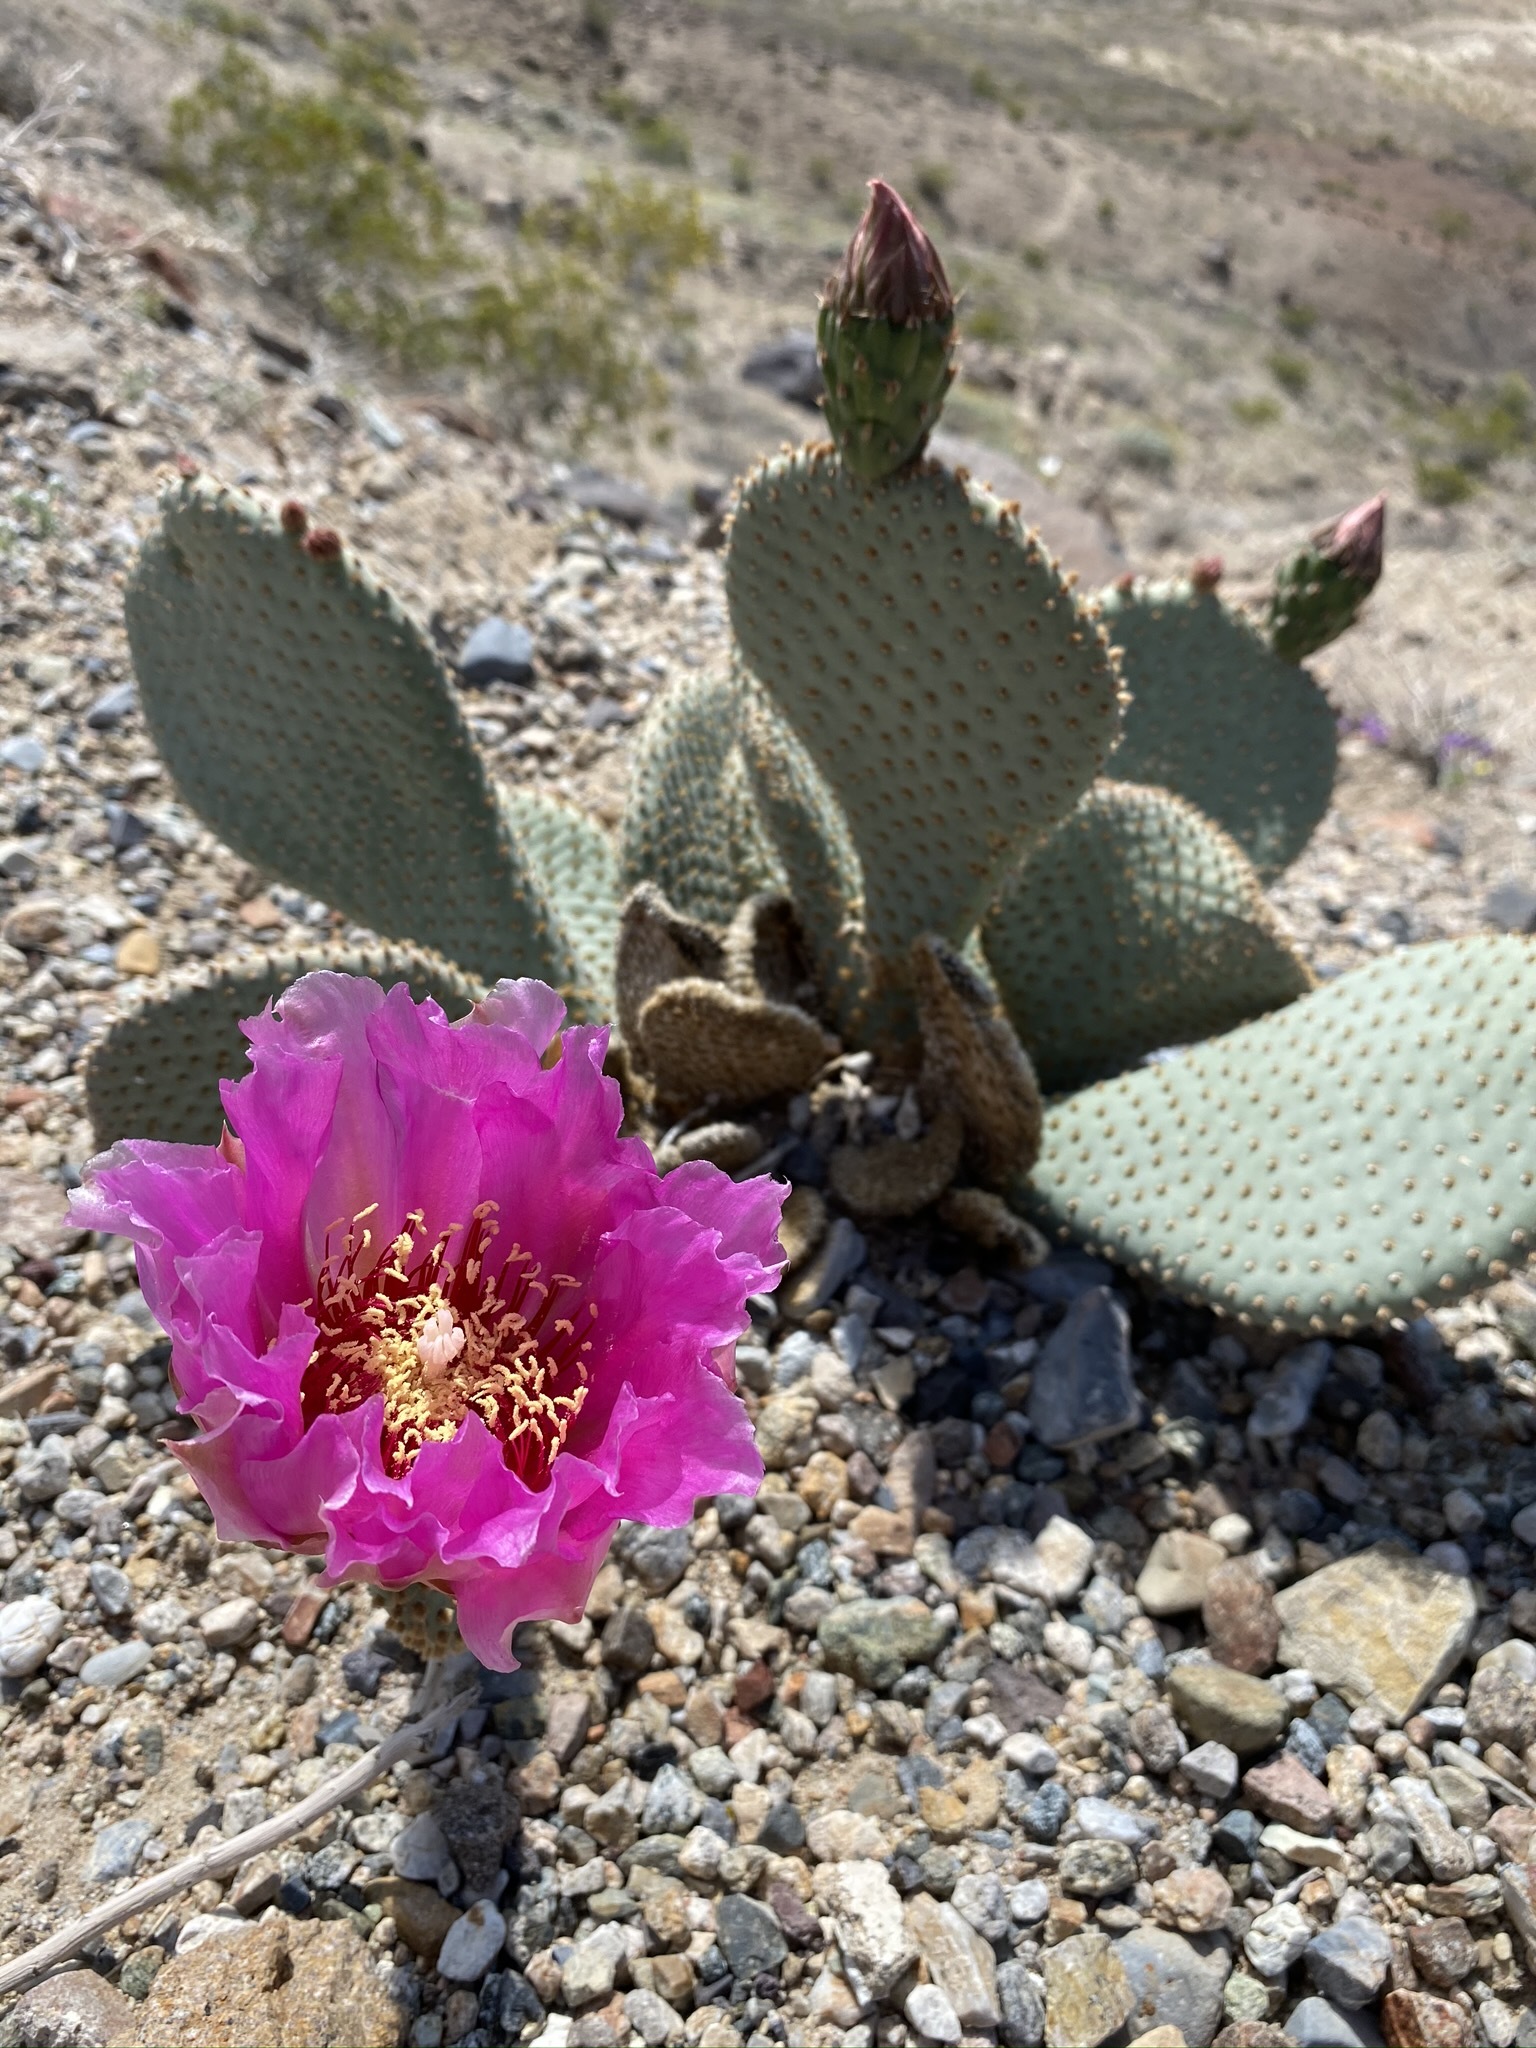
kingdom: Plantae
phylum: Tracheophyta
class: Magnoliopsida
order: Caryophyllales
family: Cactaceae
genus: Opuntia
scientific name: Opuntia basilaris
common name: Beavertail prickly-pear
